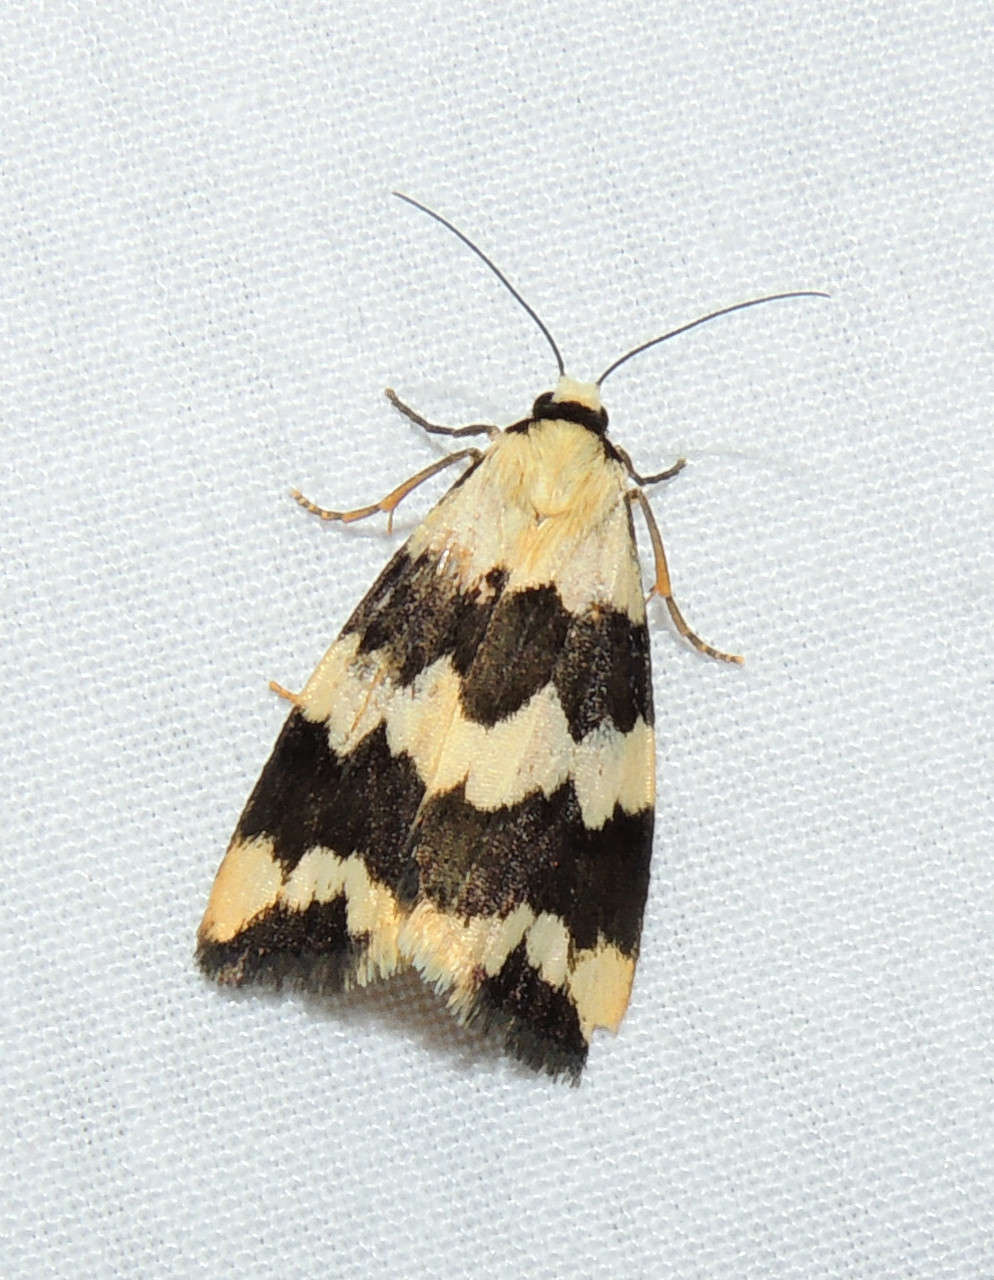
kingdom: Animalia
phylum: Arthropoda
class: Insecta
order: Lepidoptera
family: Erebidae
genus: Termessa
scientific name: Termessa laeta
